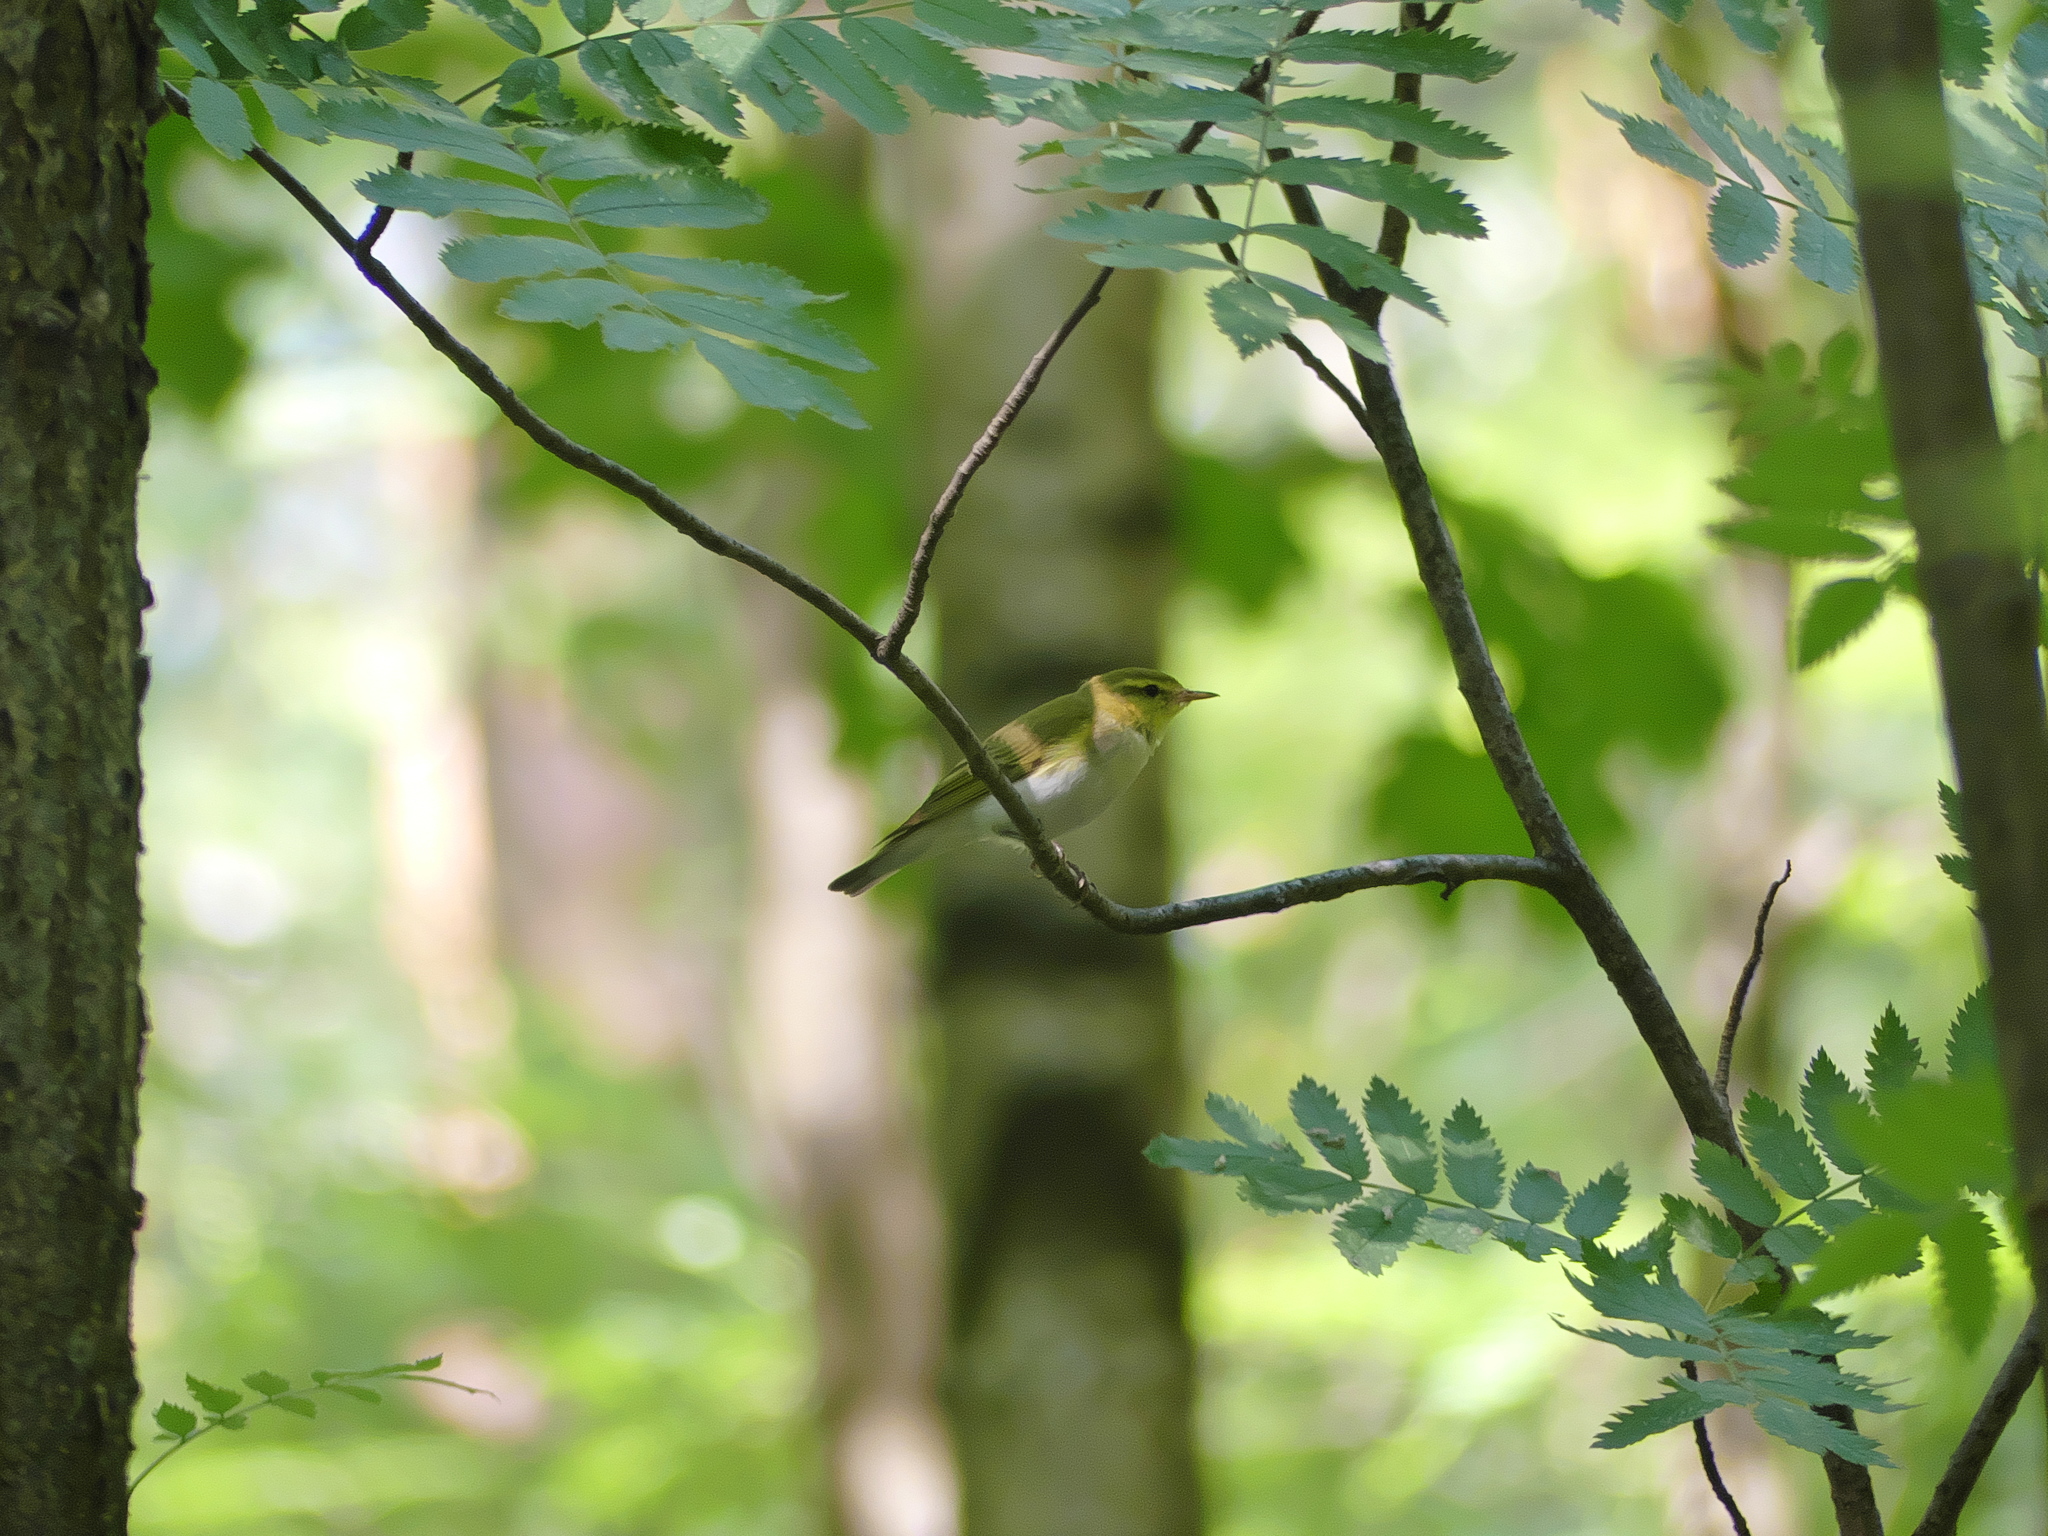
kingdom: Animalia
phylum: Chordata
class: Aves
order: Passeriformes
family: Phylloscopidae
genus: Phylloscopus
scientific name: Phylloscopus sibillatrix
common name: Wood warbler
